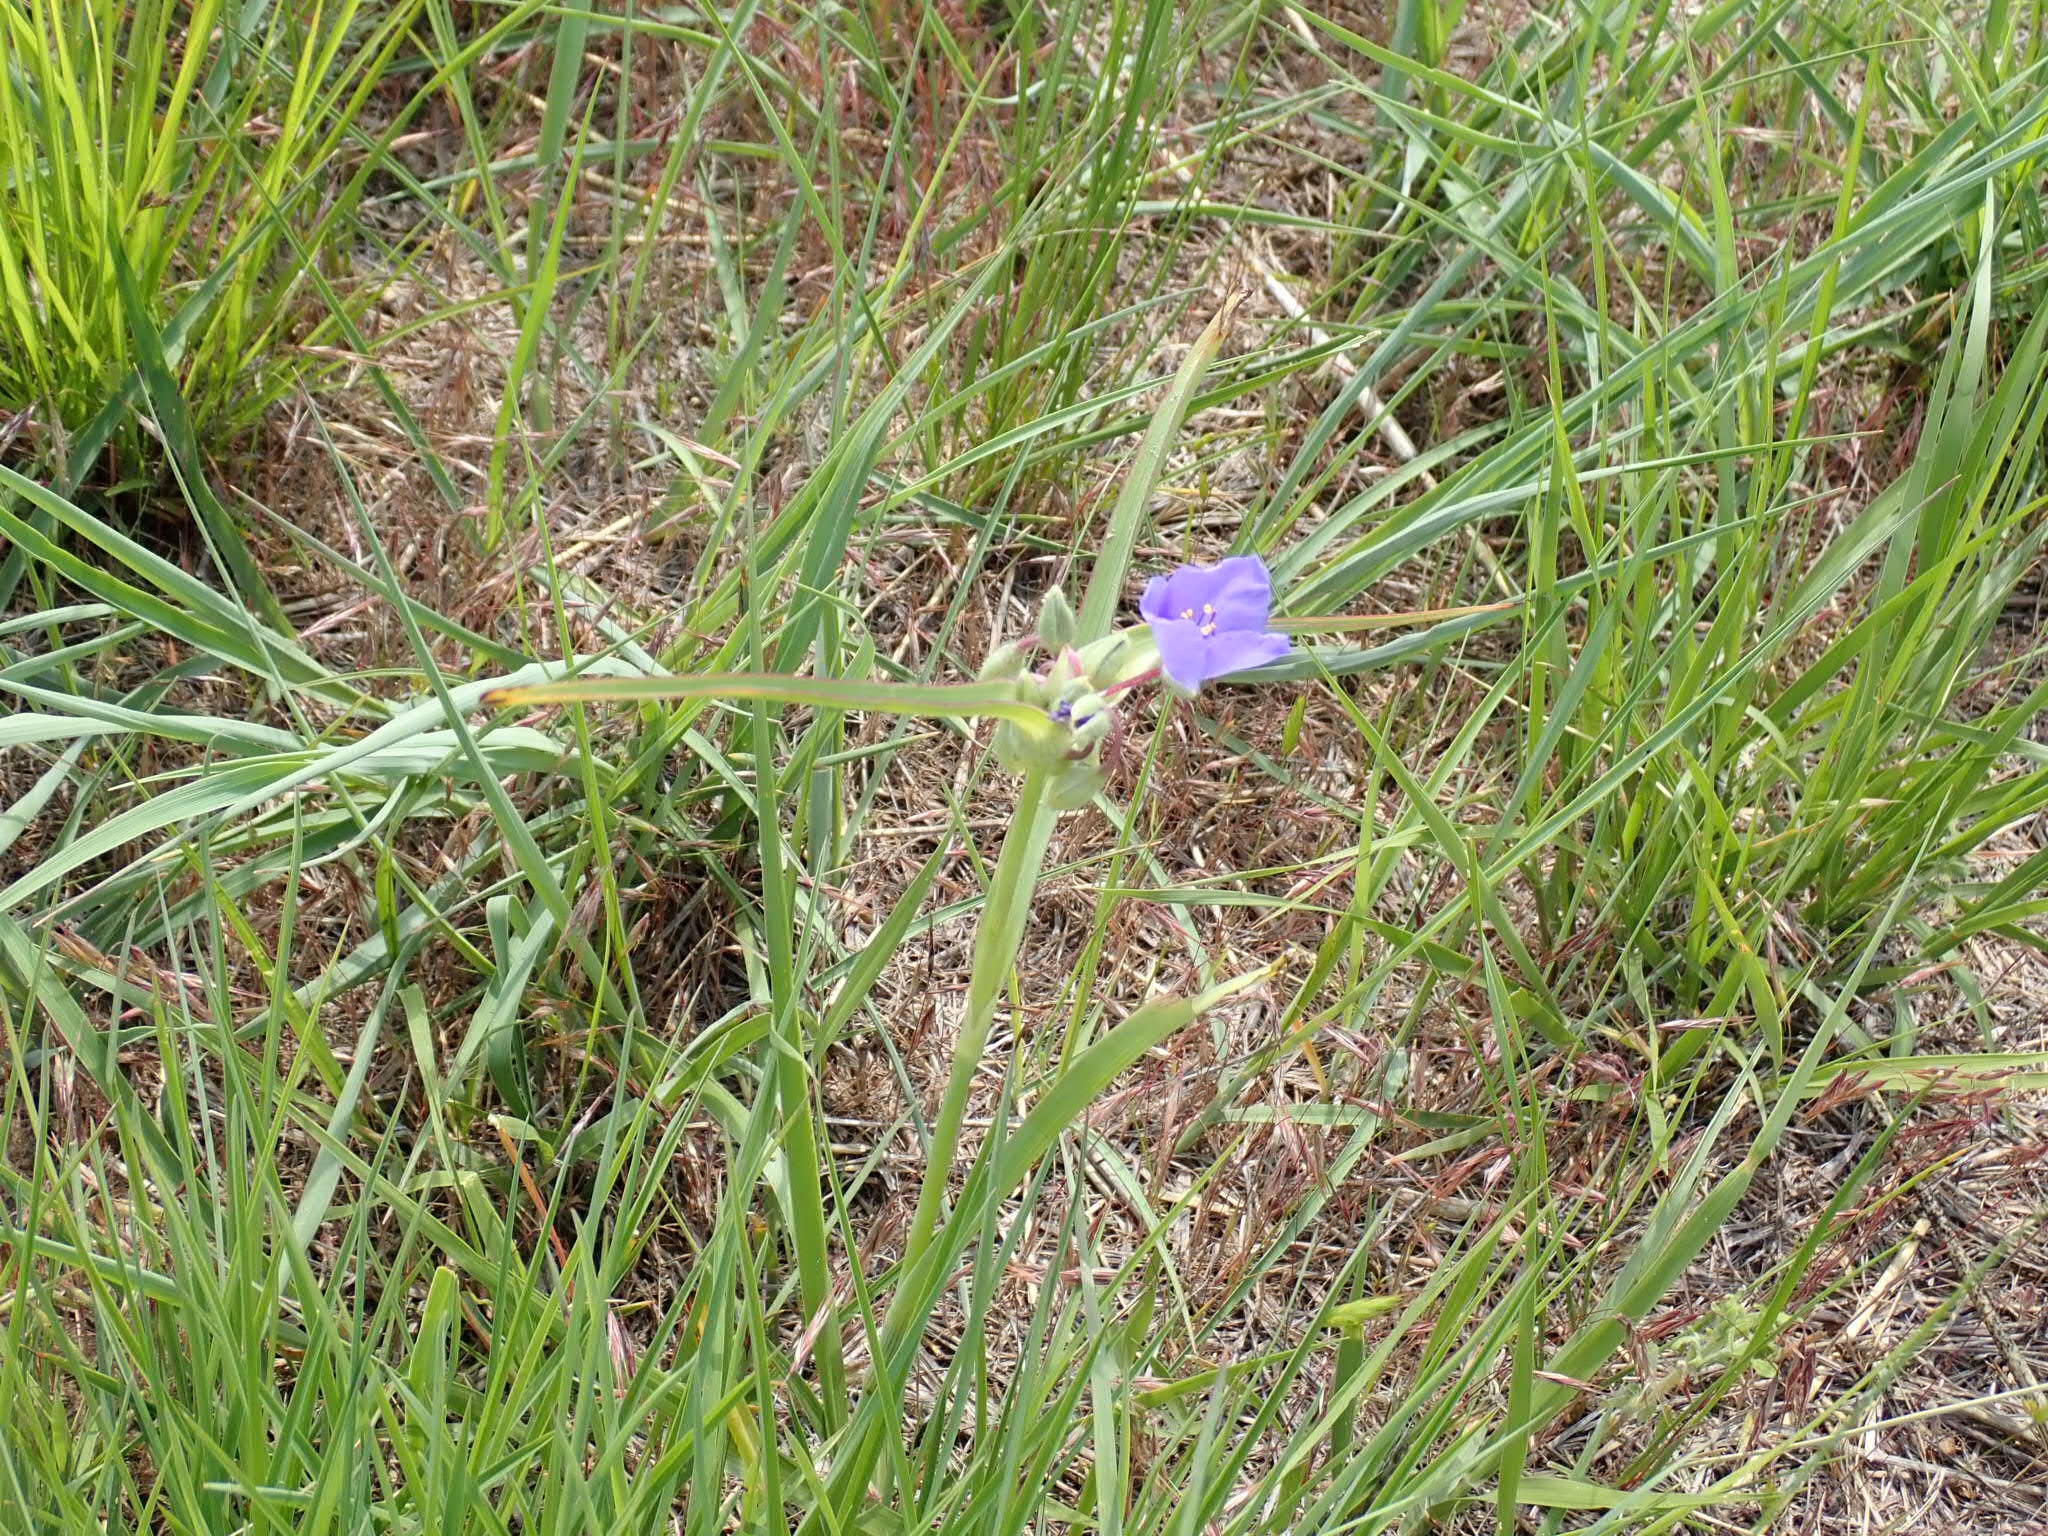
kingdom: Plantae
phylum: Tracheophyta
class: Liliopsida
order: Commelinales
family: Commelinaceae
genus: Tradescantia
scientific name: Tradescantia occidentalis
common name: Prairie spiderwort
